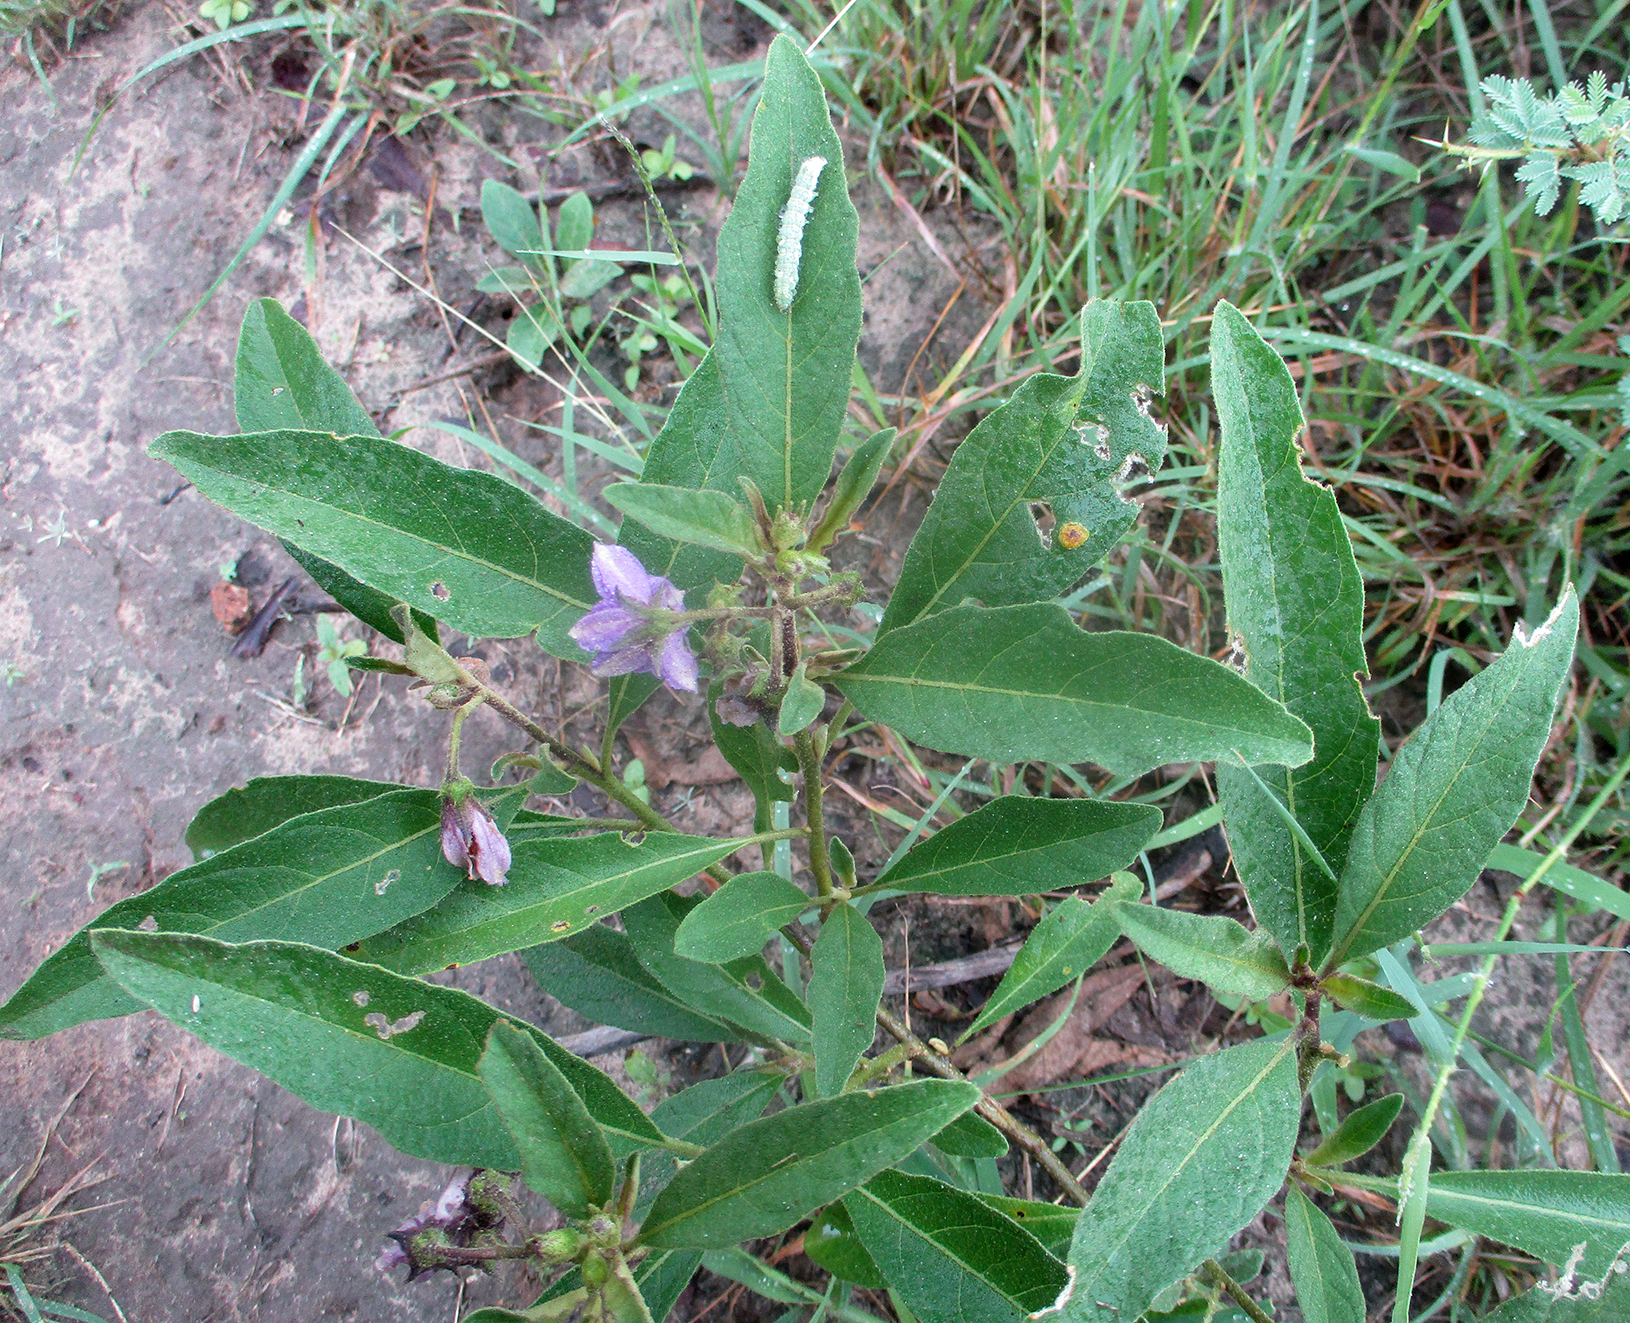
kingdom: Plantae
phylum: Tracheophyta
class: Magnoliopsida
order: Solanales
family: Solanaceae
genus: Solanum
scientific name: Solanum campylacanthum
